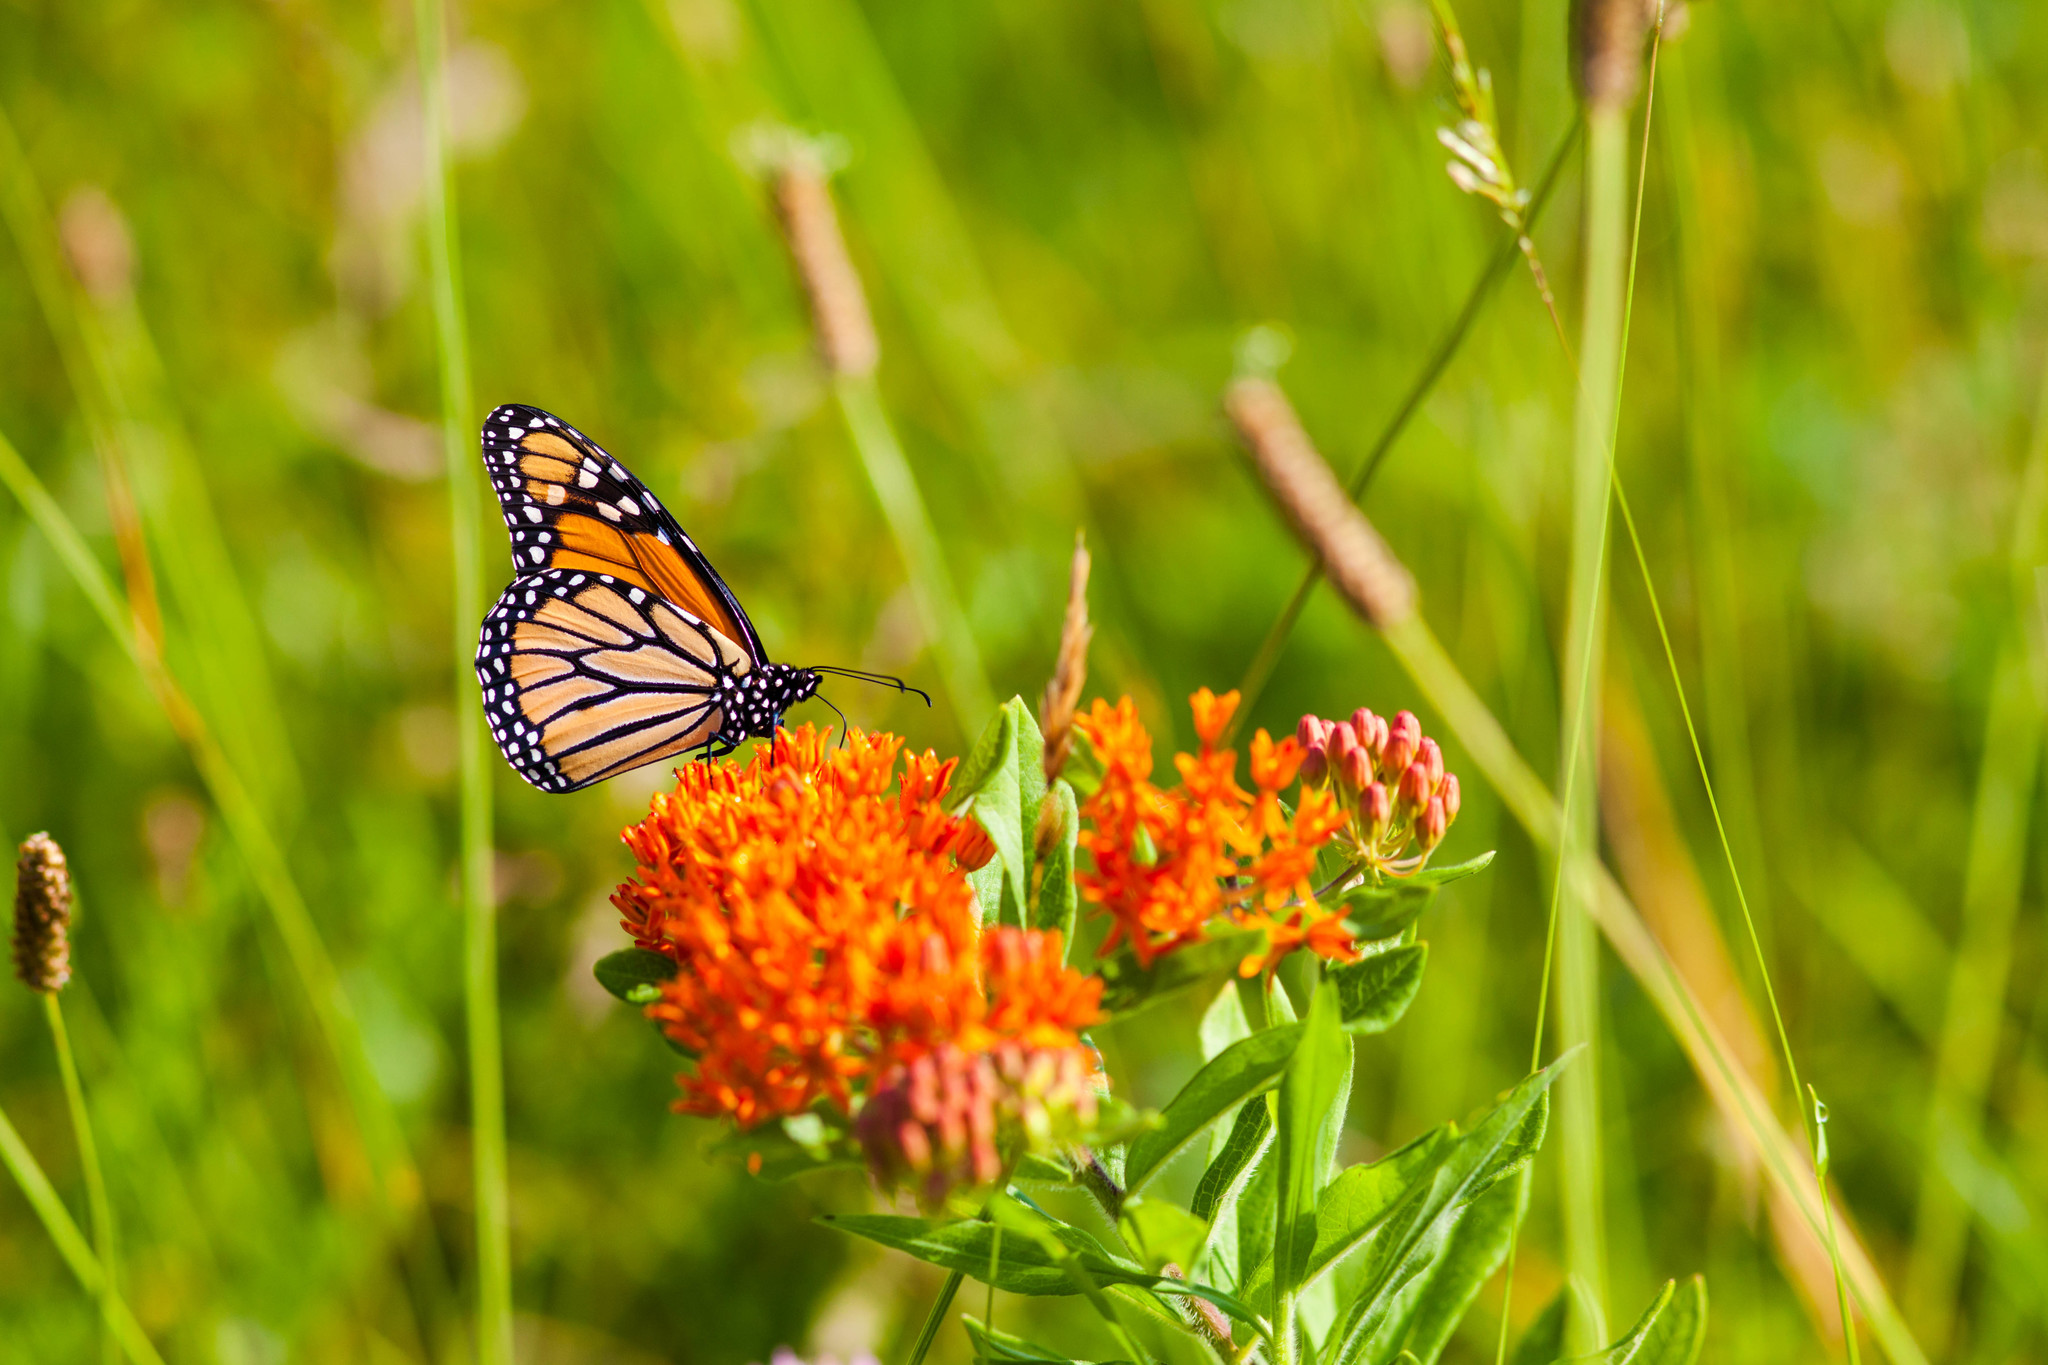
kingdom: Animalia
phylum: Arthropoda
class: Insecta
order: Lepidoptera
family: Nymphalidae
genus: Danaus
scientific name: Danaus plexippus
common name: Monarch
